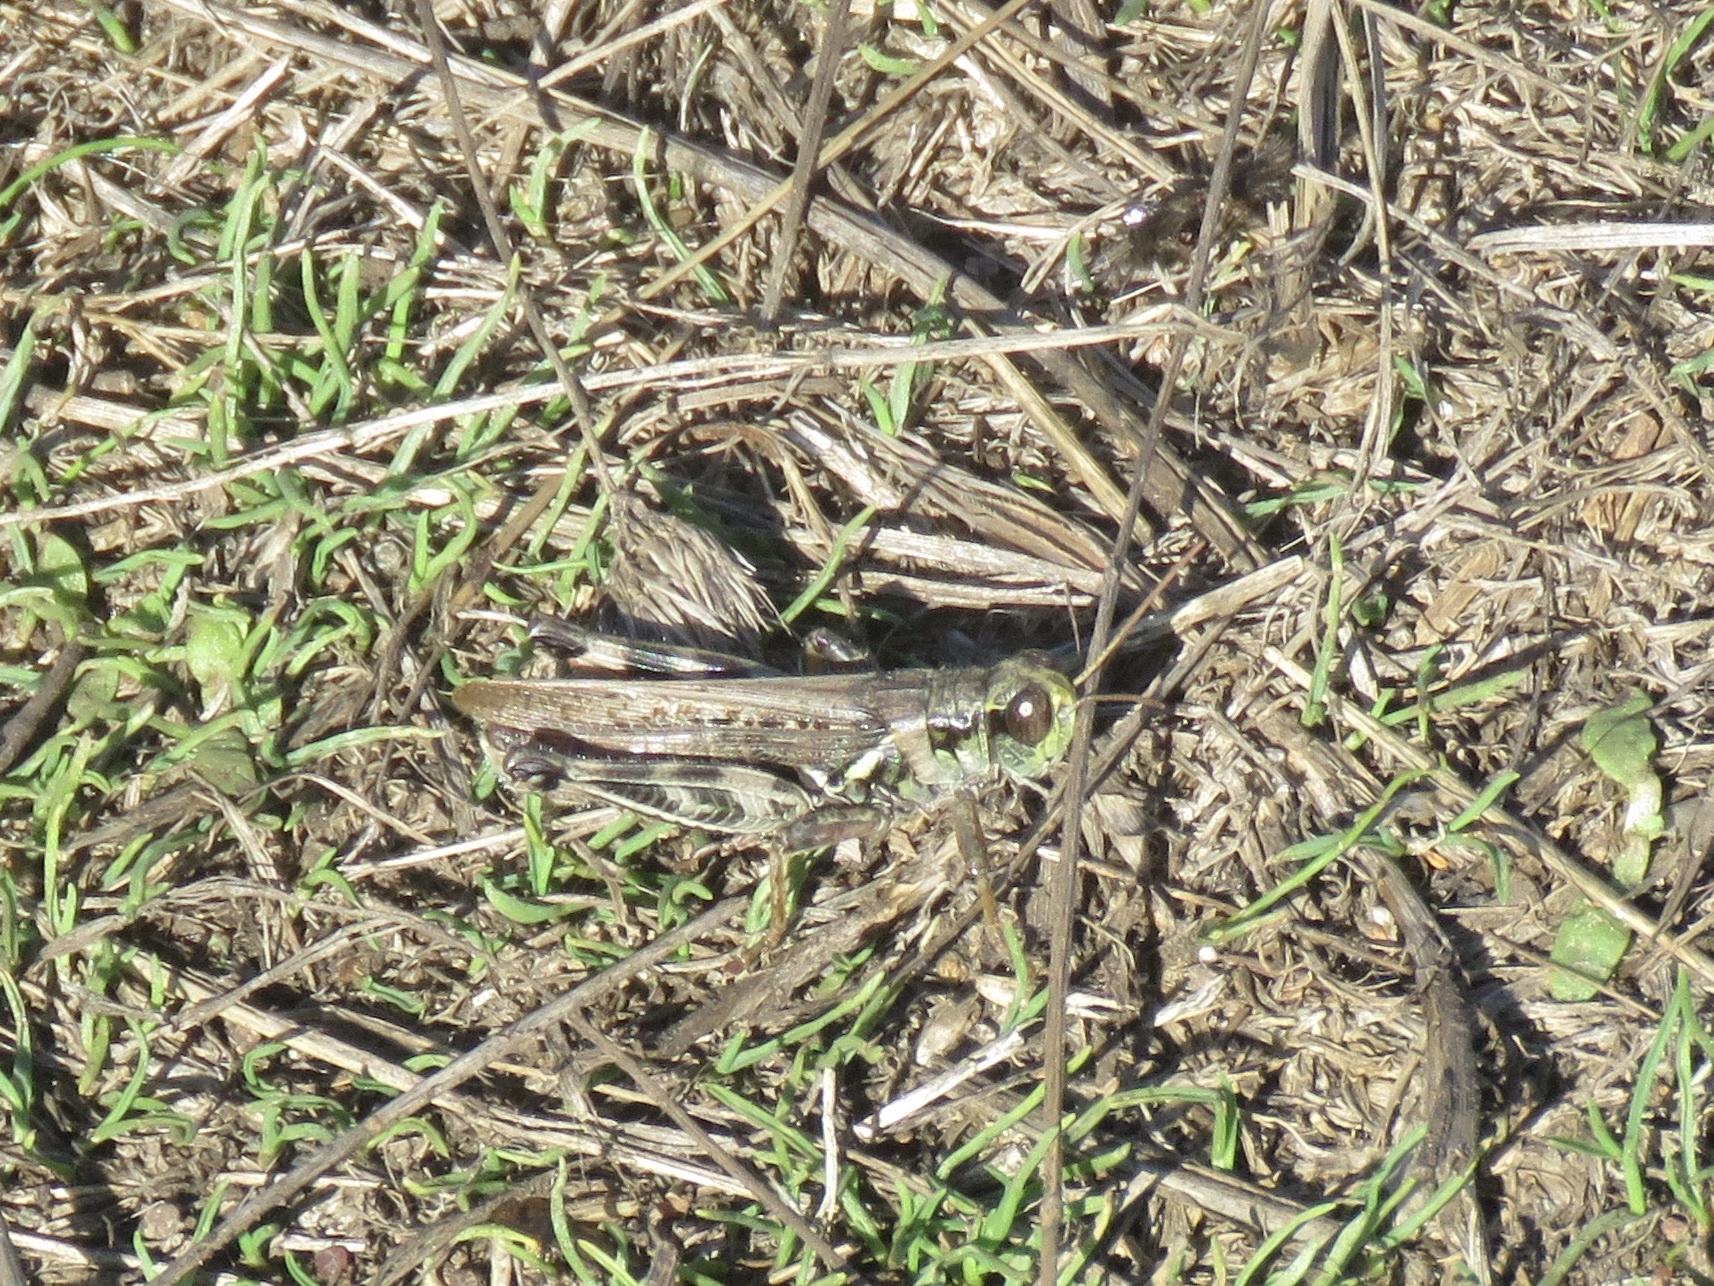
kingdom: Animalia
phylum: Arthropoda
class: Insecta
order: Orthoptera
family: Acrididae
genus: Melanoplus
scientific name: Melanoplus sanguinipes
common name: Migratory grasshopper
